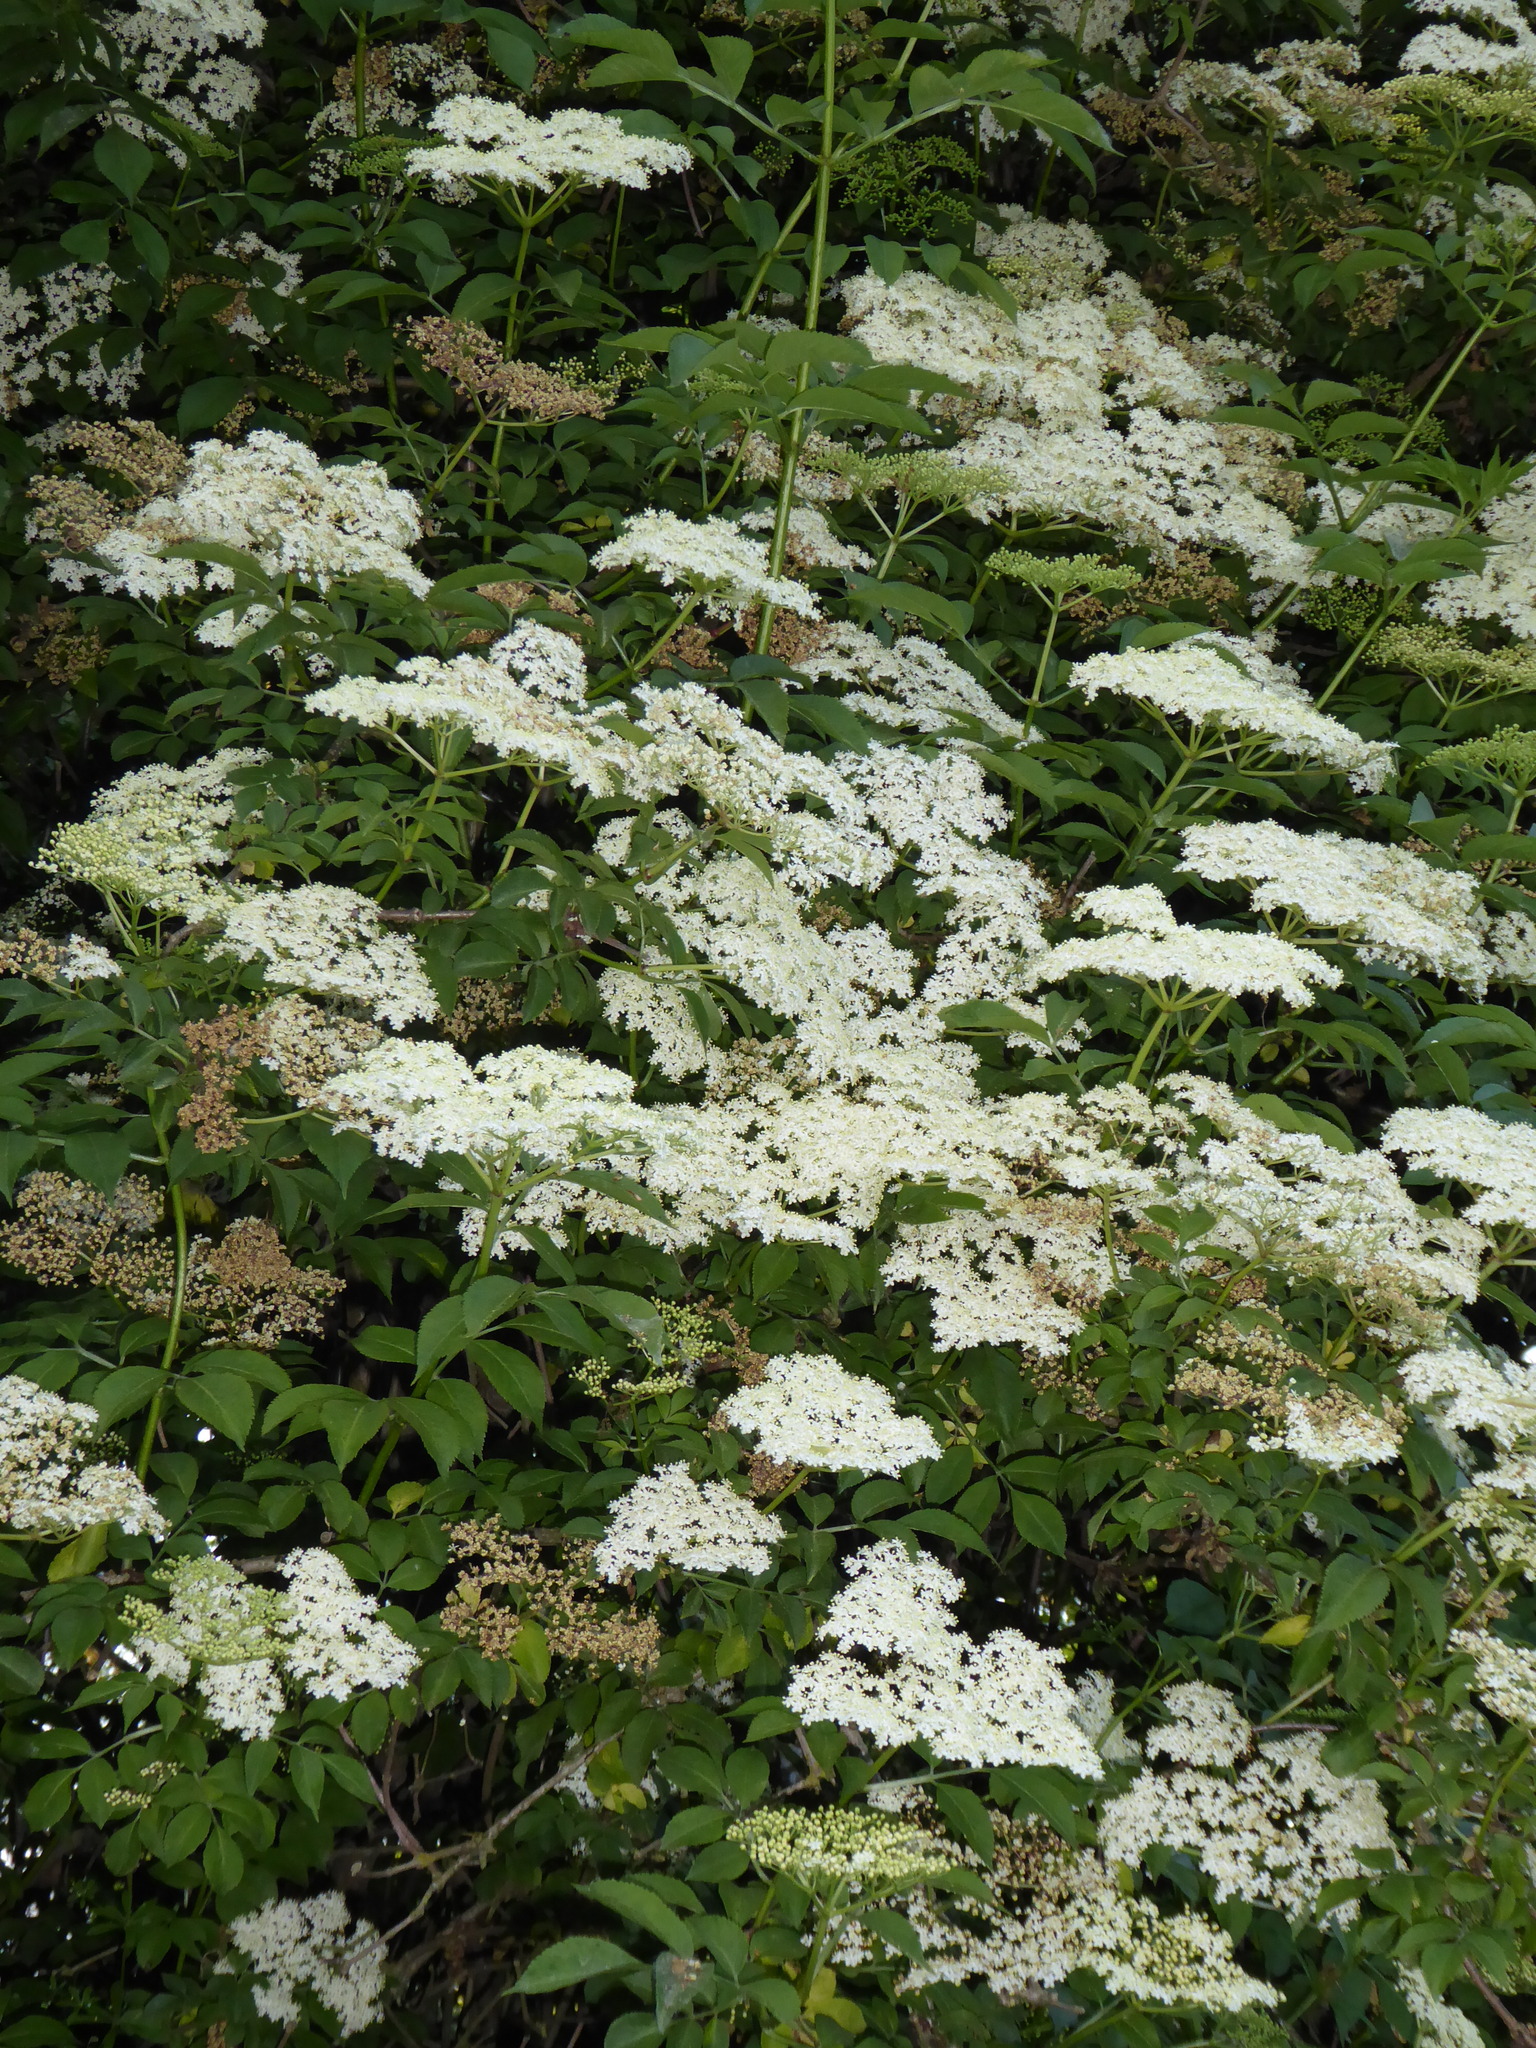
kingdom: Plantae
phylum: Tracheophyta
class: Magnoliopsida
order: Dipsacales
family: Viburnaceae
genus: Sambucus
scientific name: Sambucus nigra
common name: Elder
